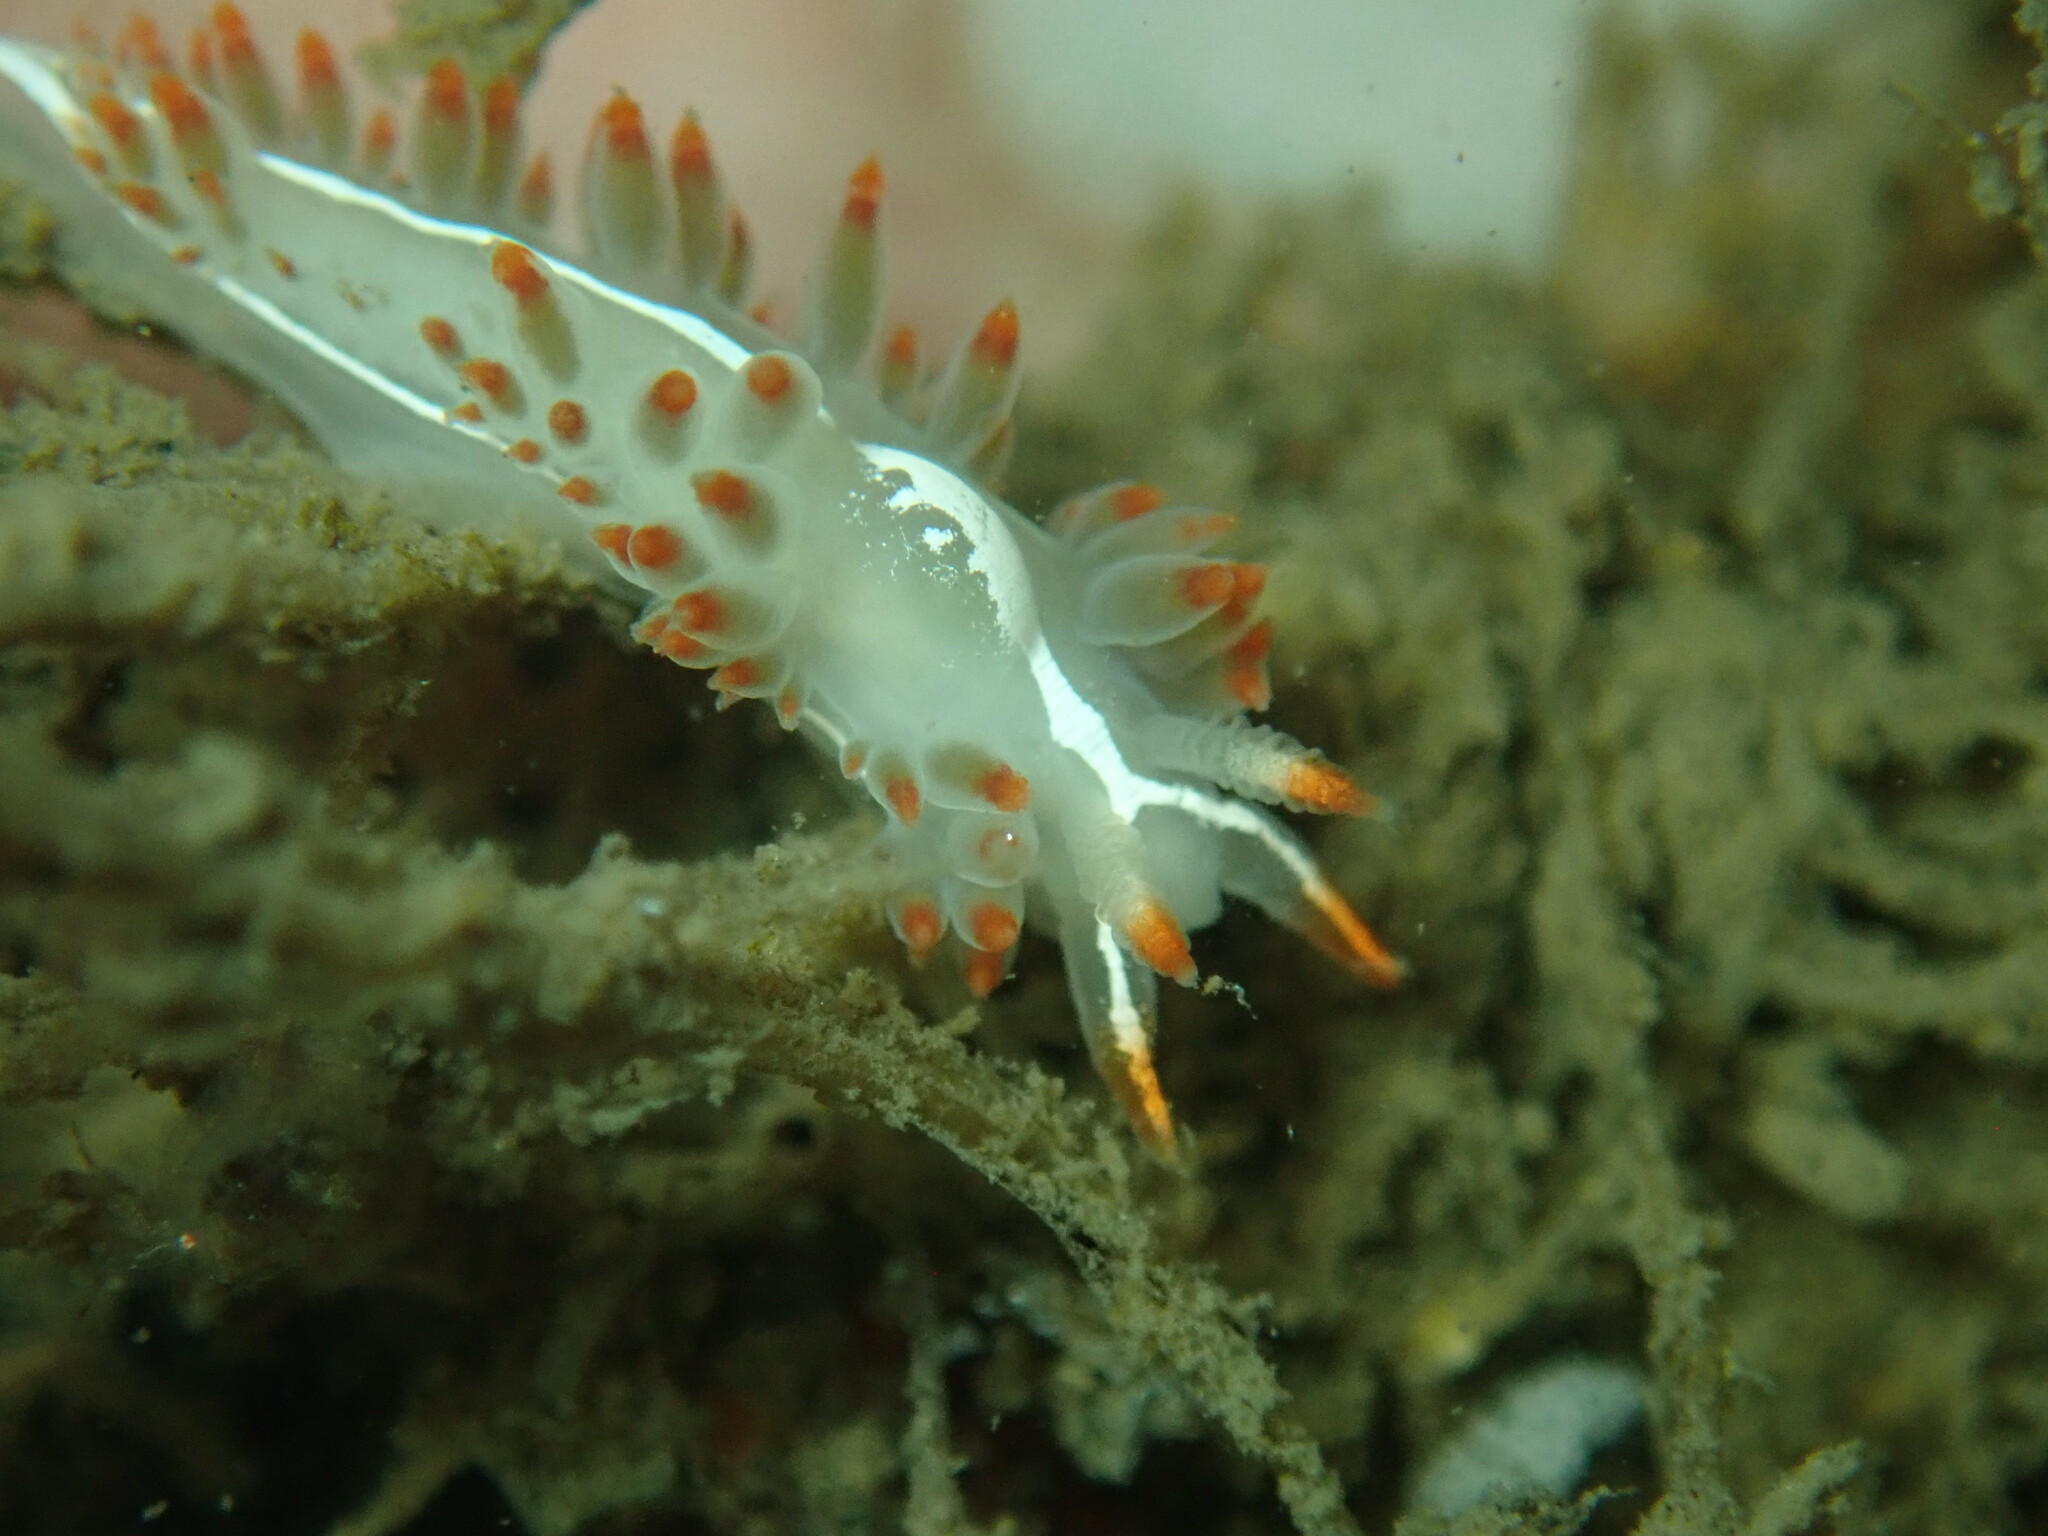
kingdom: Animalia
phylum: Mollusca
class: Gastropoda
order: Nudibranchia
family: Coryphellidae
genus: Coryphella
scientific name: Coryphella trilineata
